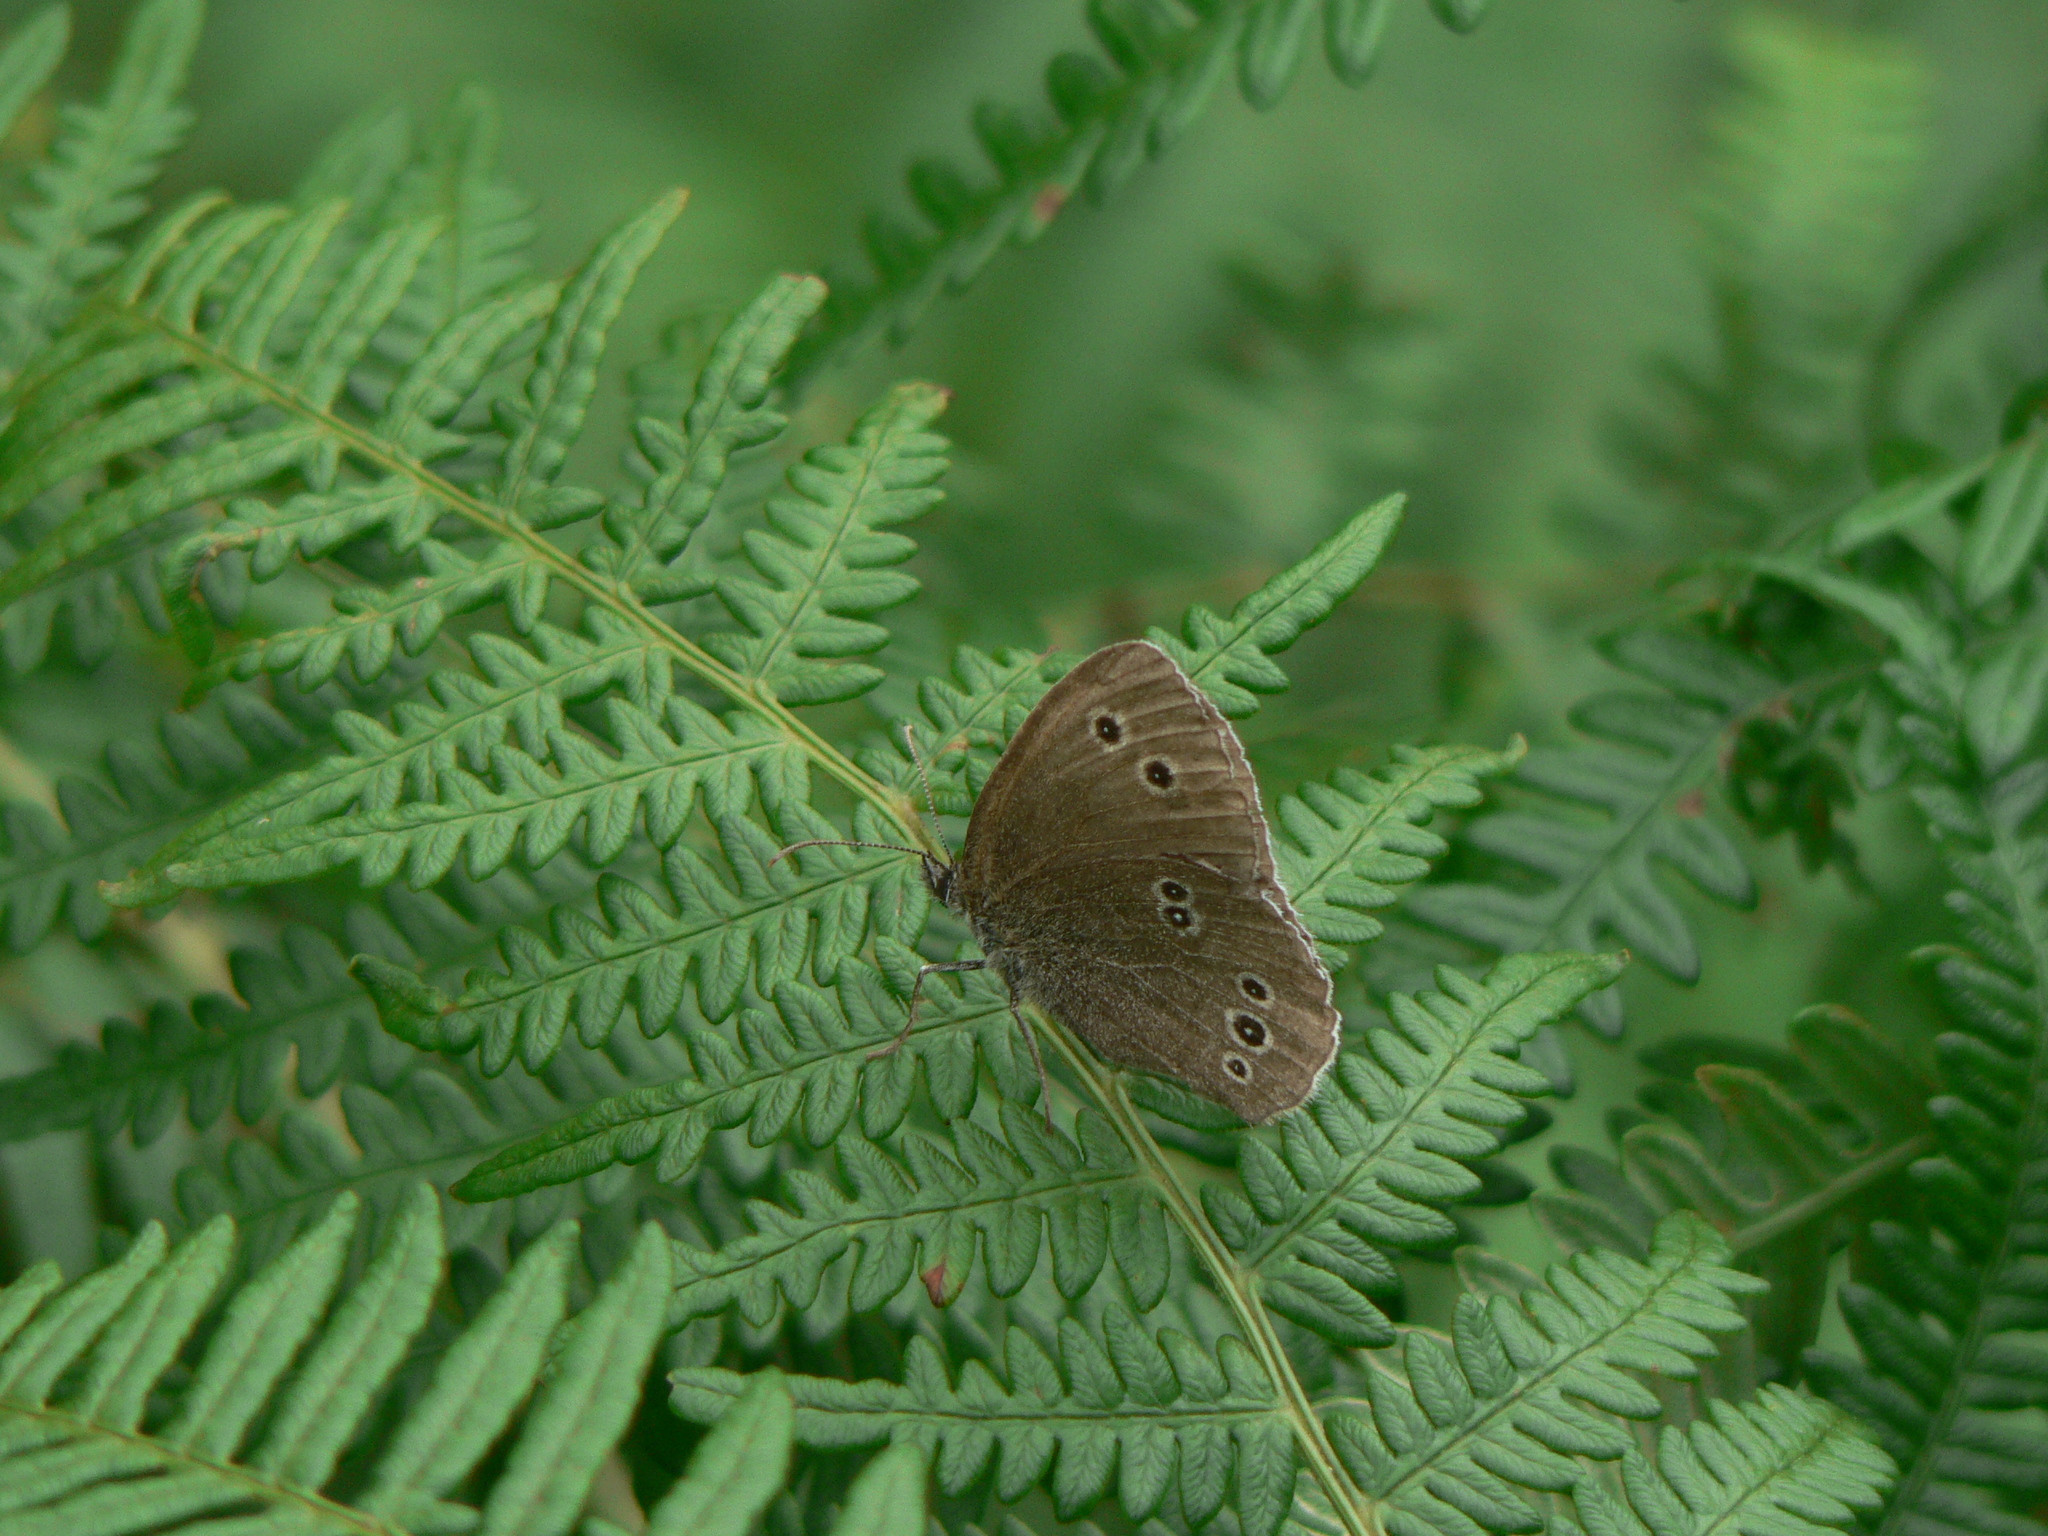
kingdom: Animalia
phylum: Arthropoda
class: Insecta
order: Lepidoptera
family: Nymphalidae
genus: Aphantopus
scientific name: Aphantopus hyperantus
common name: Ringlet
